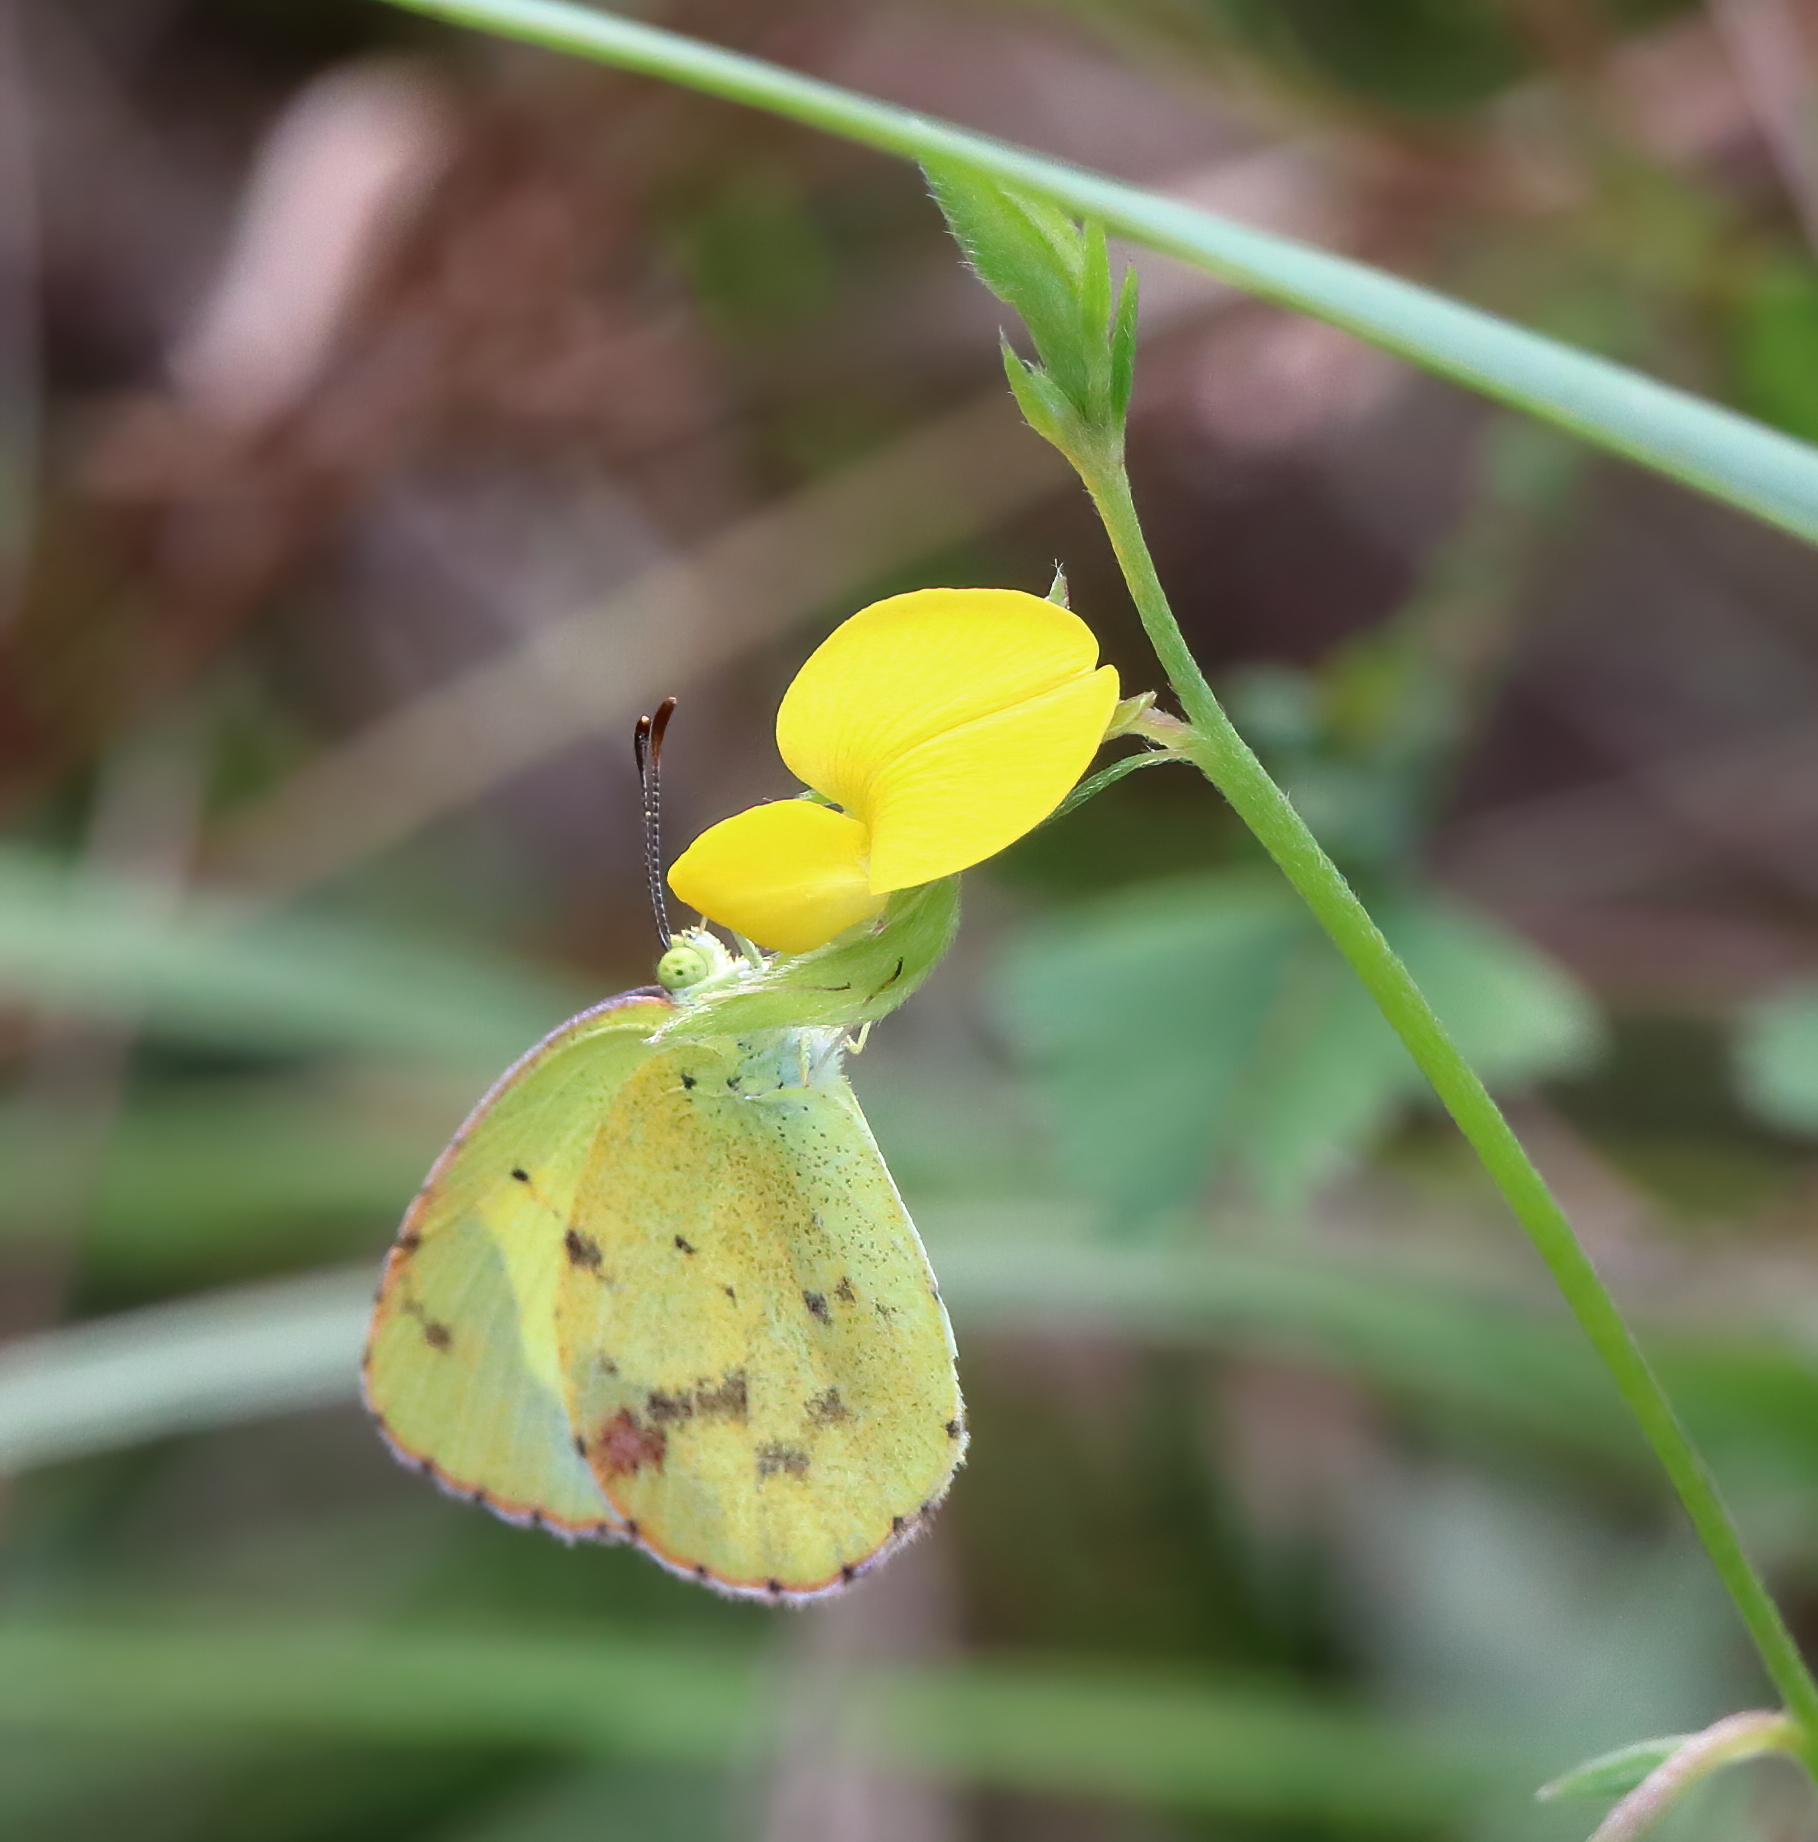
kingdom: Animalia
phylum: Arthropoda
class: Insecta
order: Lepidoptera
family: Pieridae
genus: Pyrisitia
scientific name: Pyrisitia lisa
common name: Little yellow
